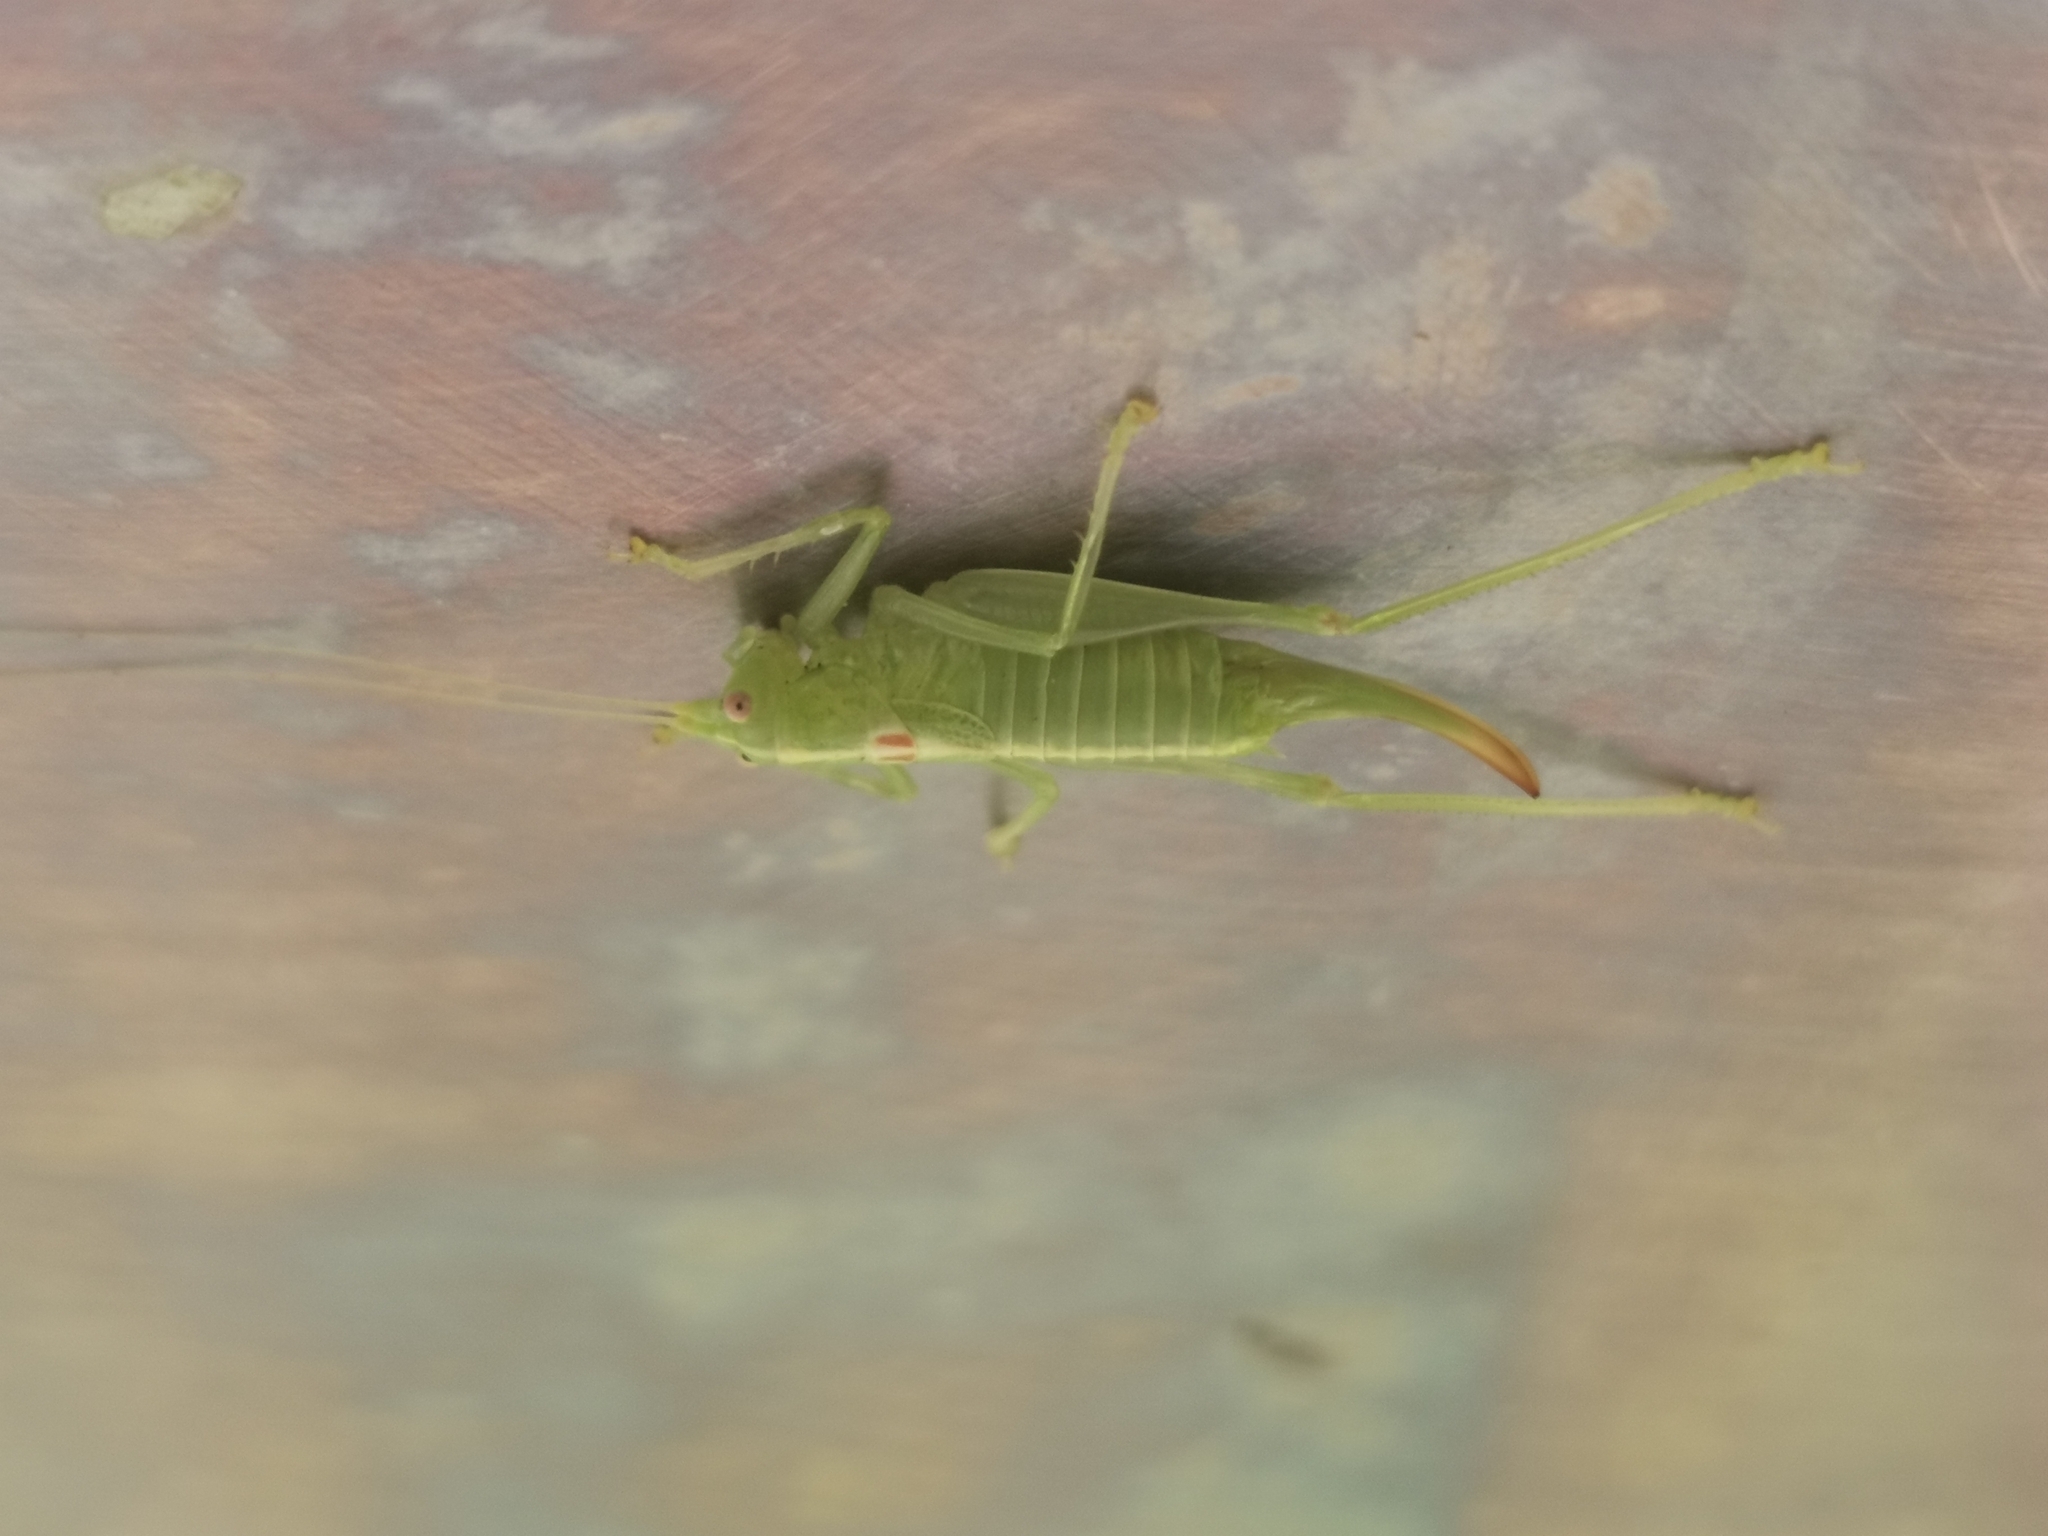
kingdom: Animalia
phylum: Arthropoda
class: Insecta
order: Orthoptera
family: Tettigoniidae
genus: Meconema
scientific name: Meconema meridionale
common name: Southern oak bush-cricket
